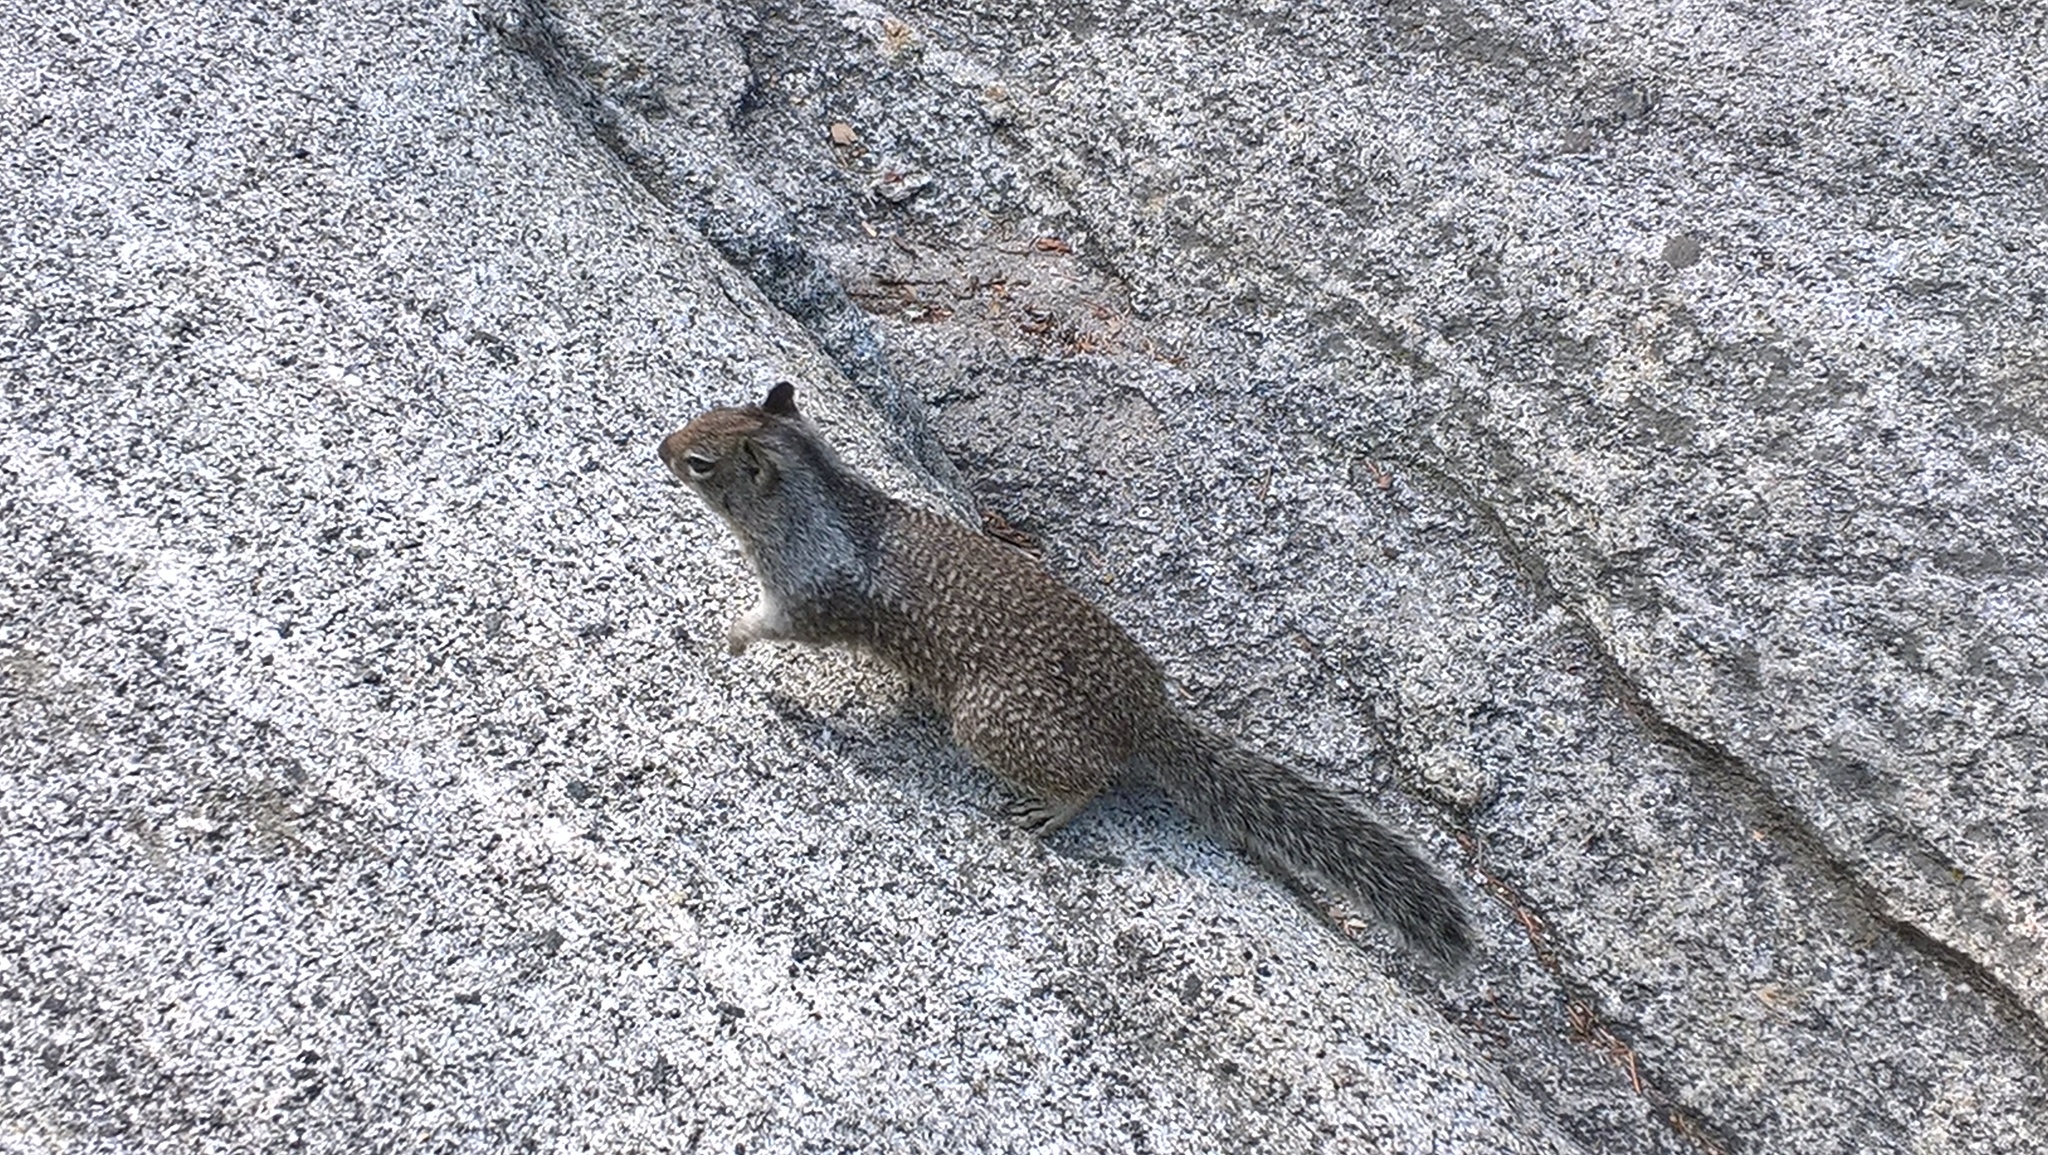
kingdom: Animalia
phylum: Chordata
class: Mammalia
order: Rodentia
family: Sciuridae
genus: Otospermophilus
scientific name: Otospermophilus beecheyi
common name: California ground squirrel
